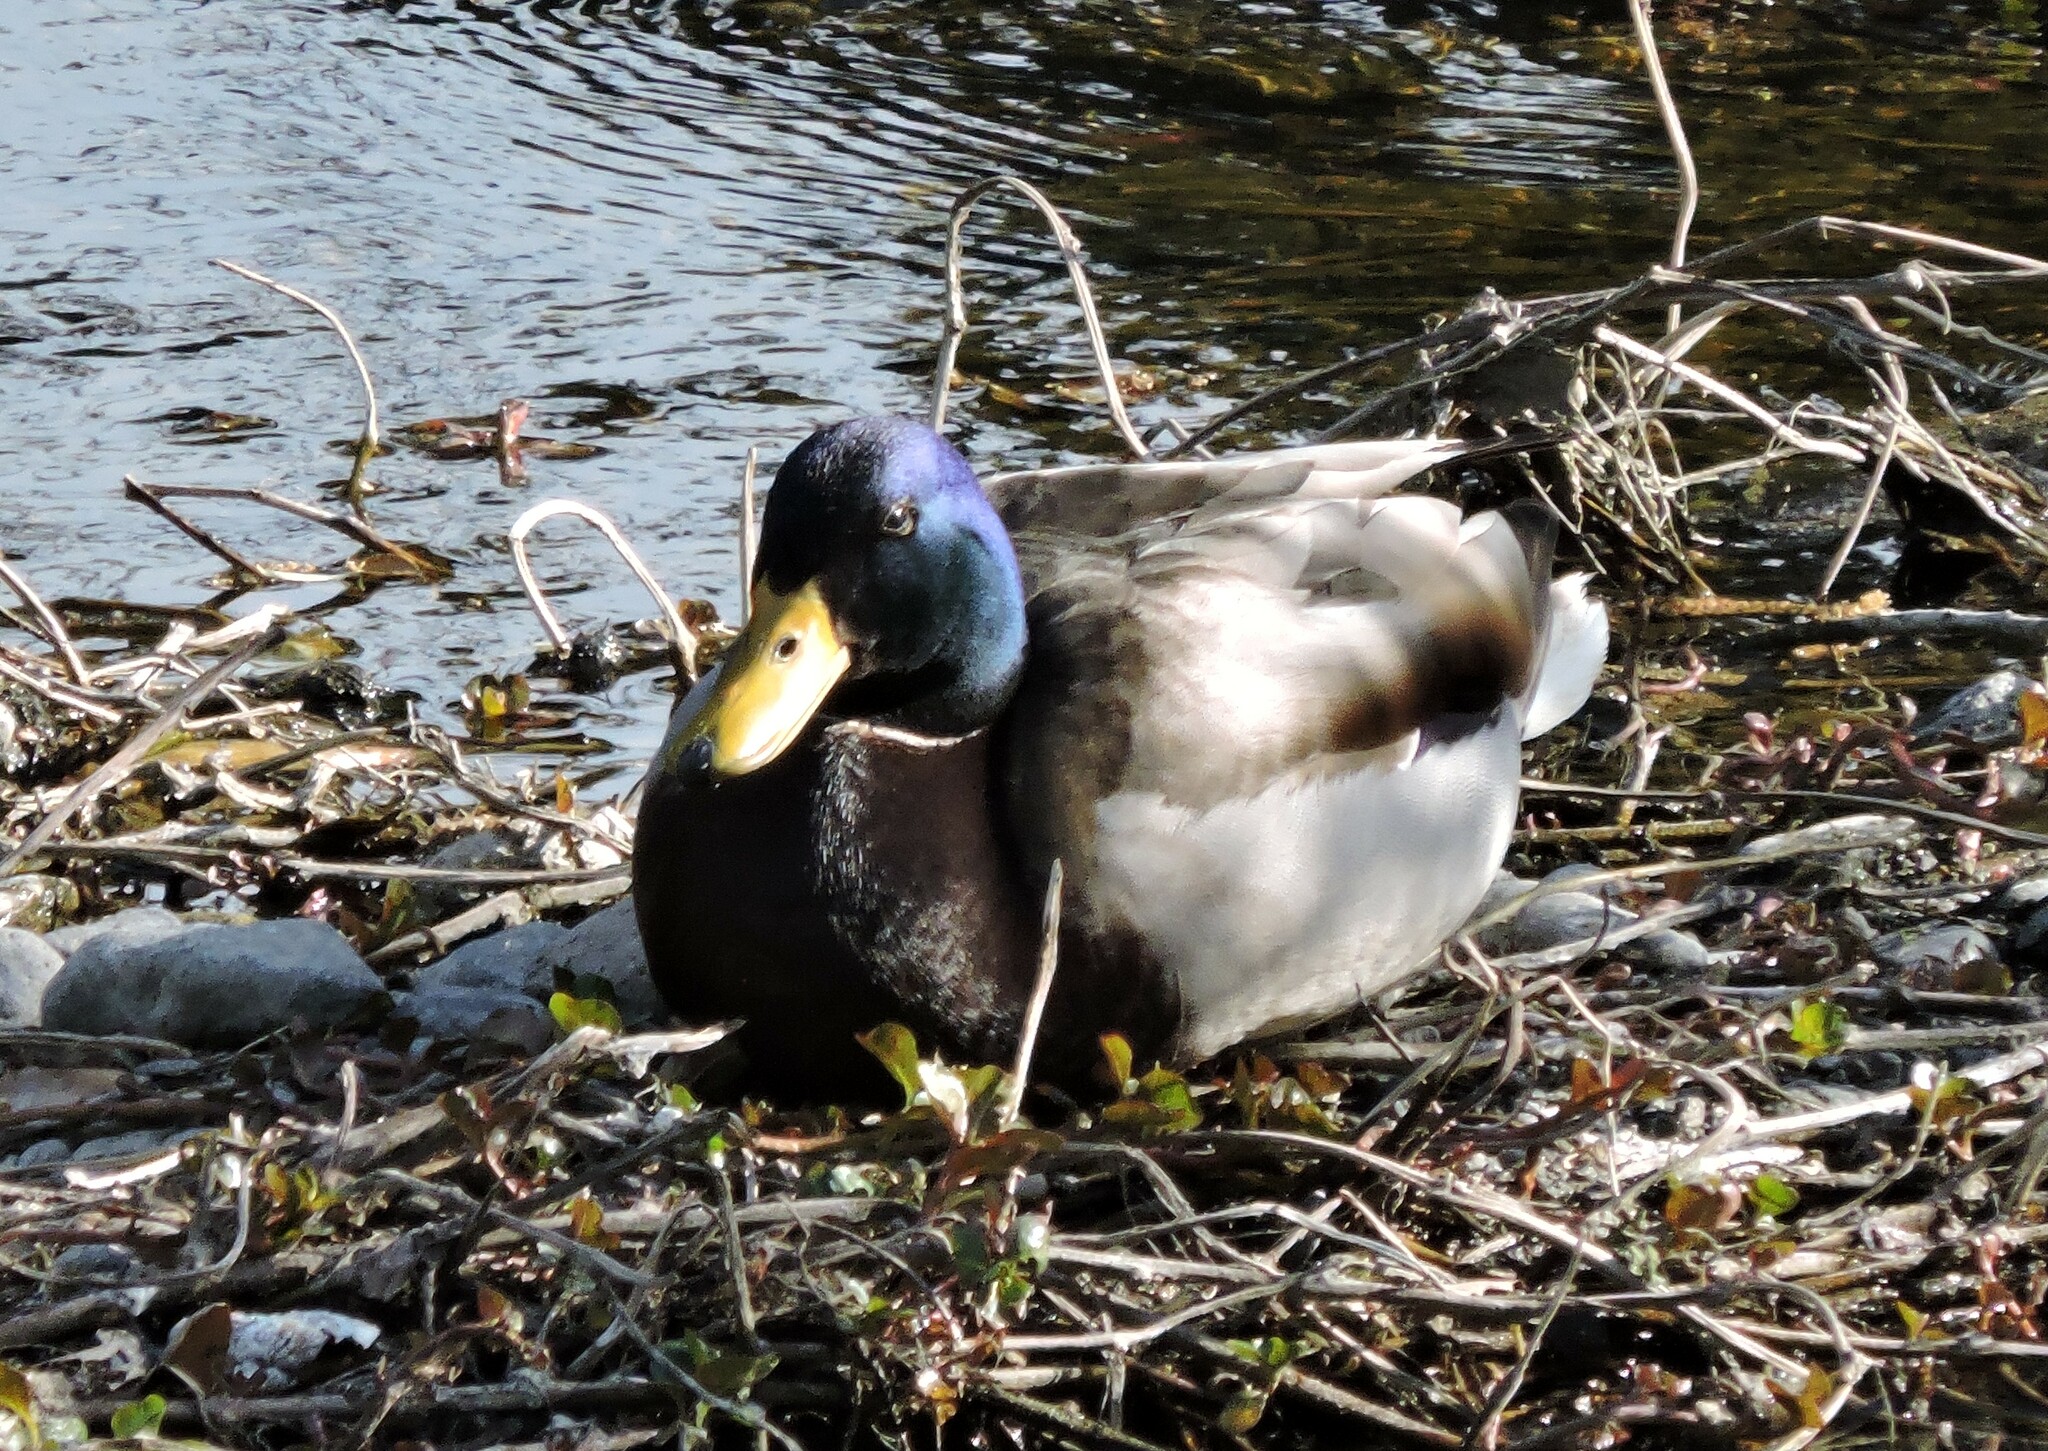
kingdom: Animalia
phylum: Chordata
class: Aves
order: Anseriformes
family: Anatidae
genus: Anas
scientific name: Anas platyrhynchos
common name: Mallard
